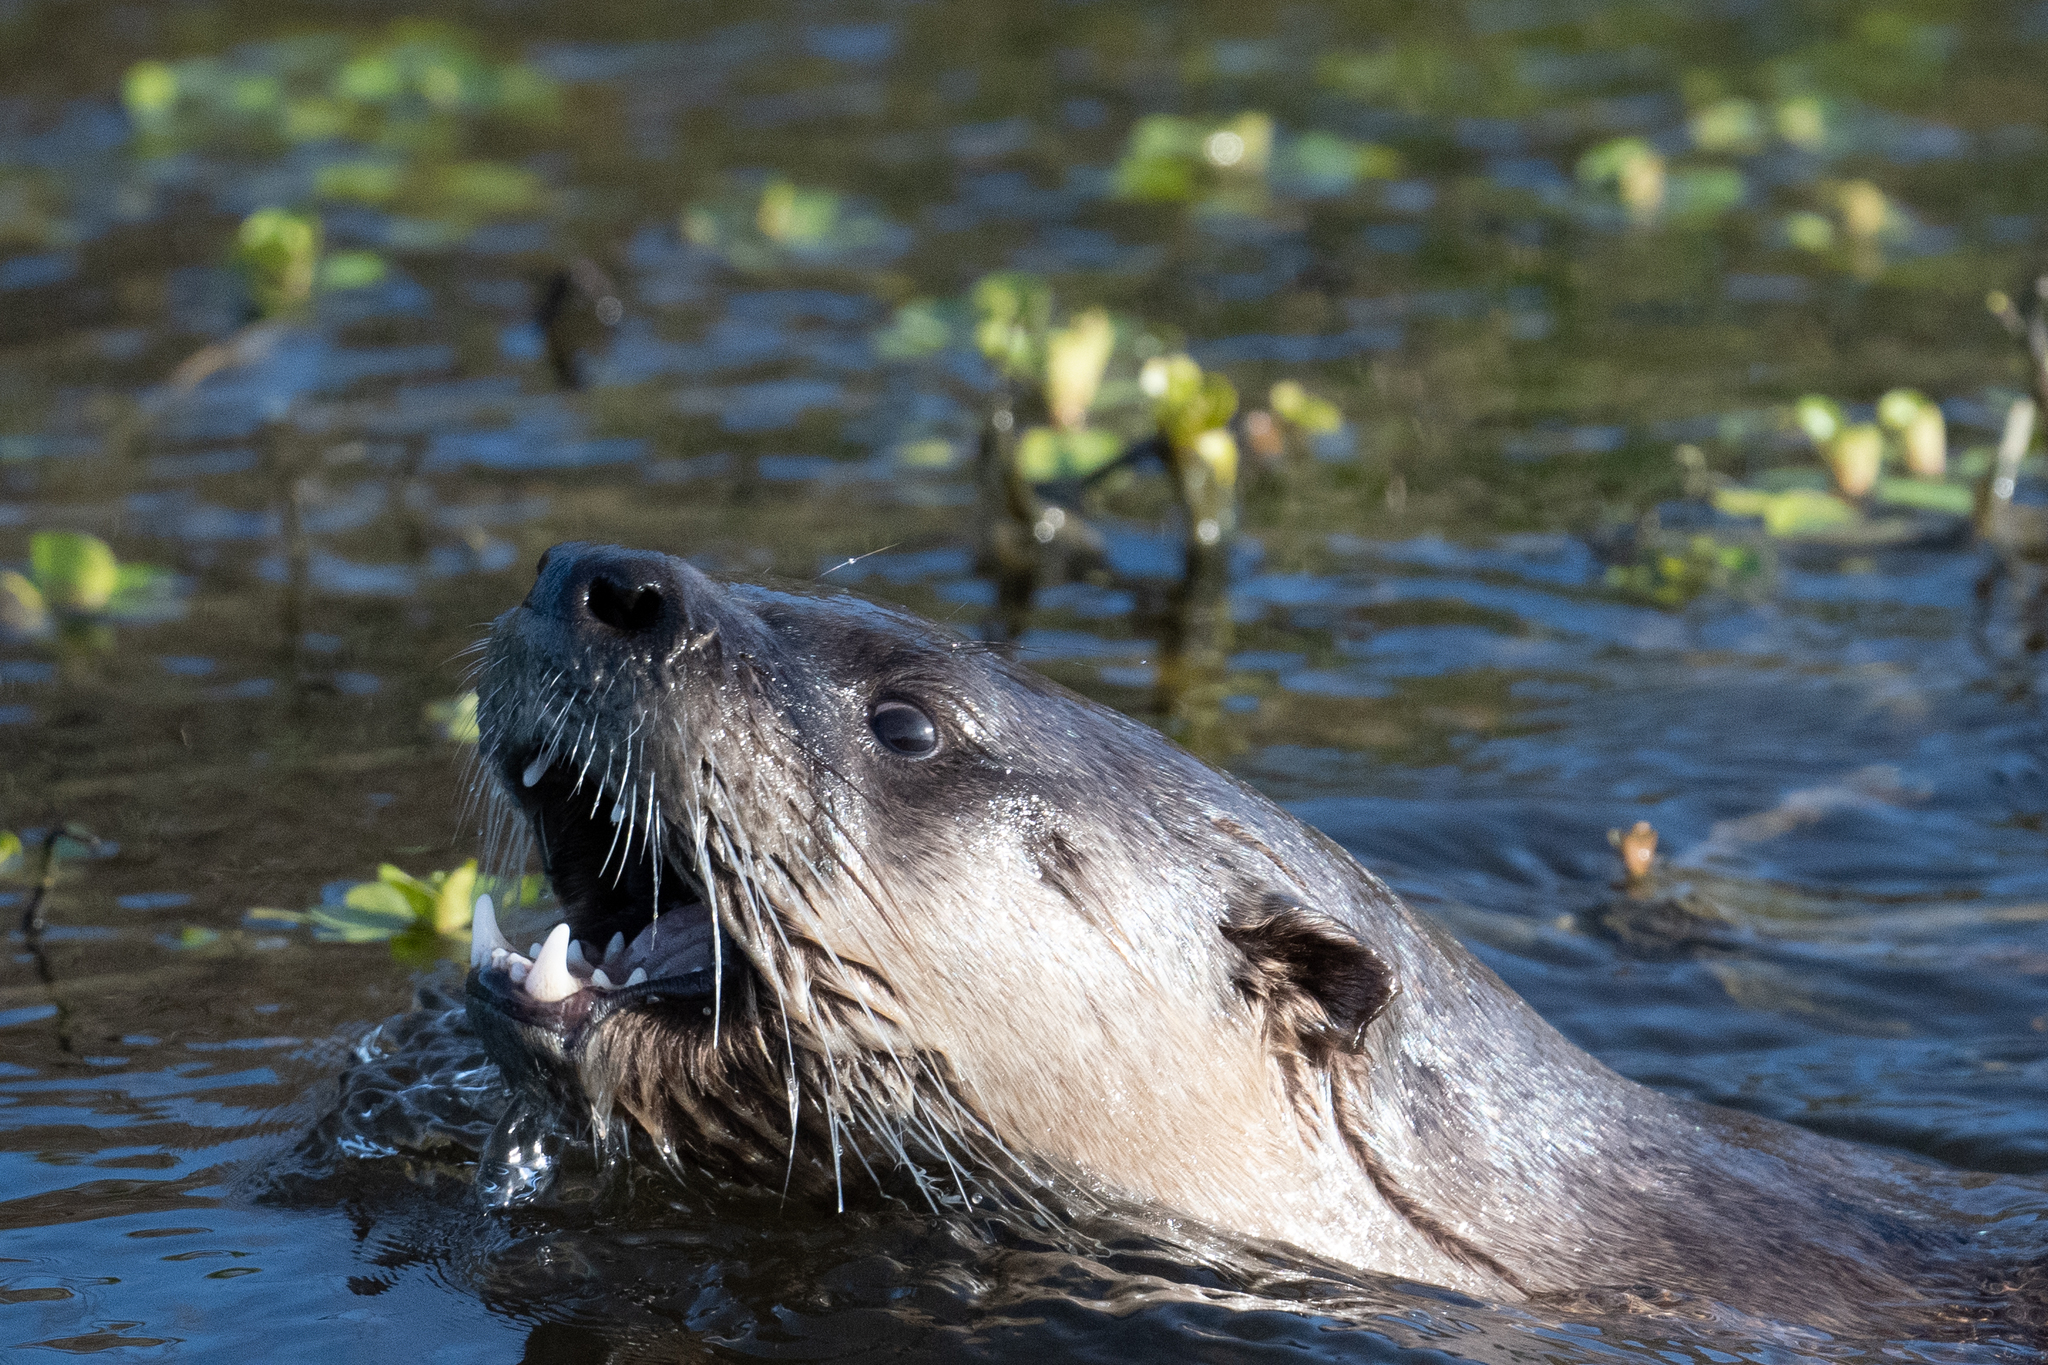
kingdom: Animalia
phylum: Chordata
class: Mammalia
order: Carnivora
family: Mustelidae
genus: Lontra
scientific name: Lontra canadensis
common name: North american river otter
